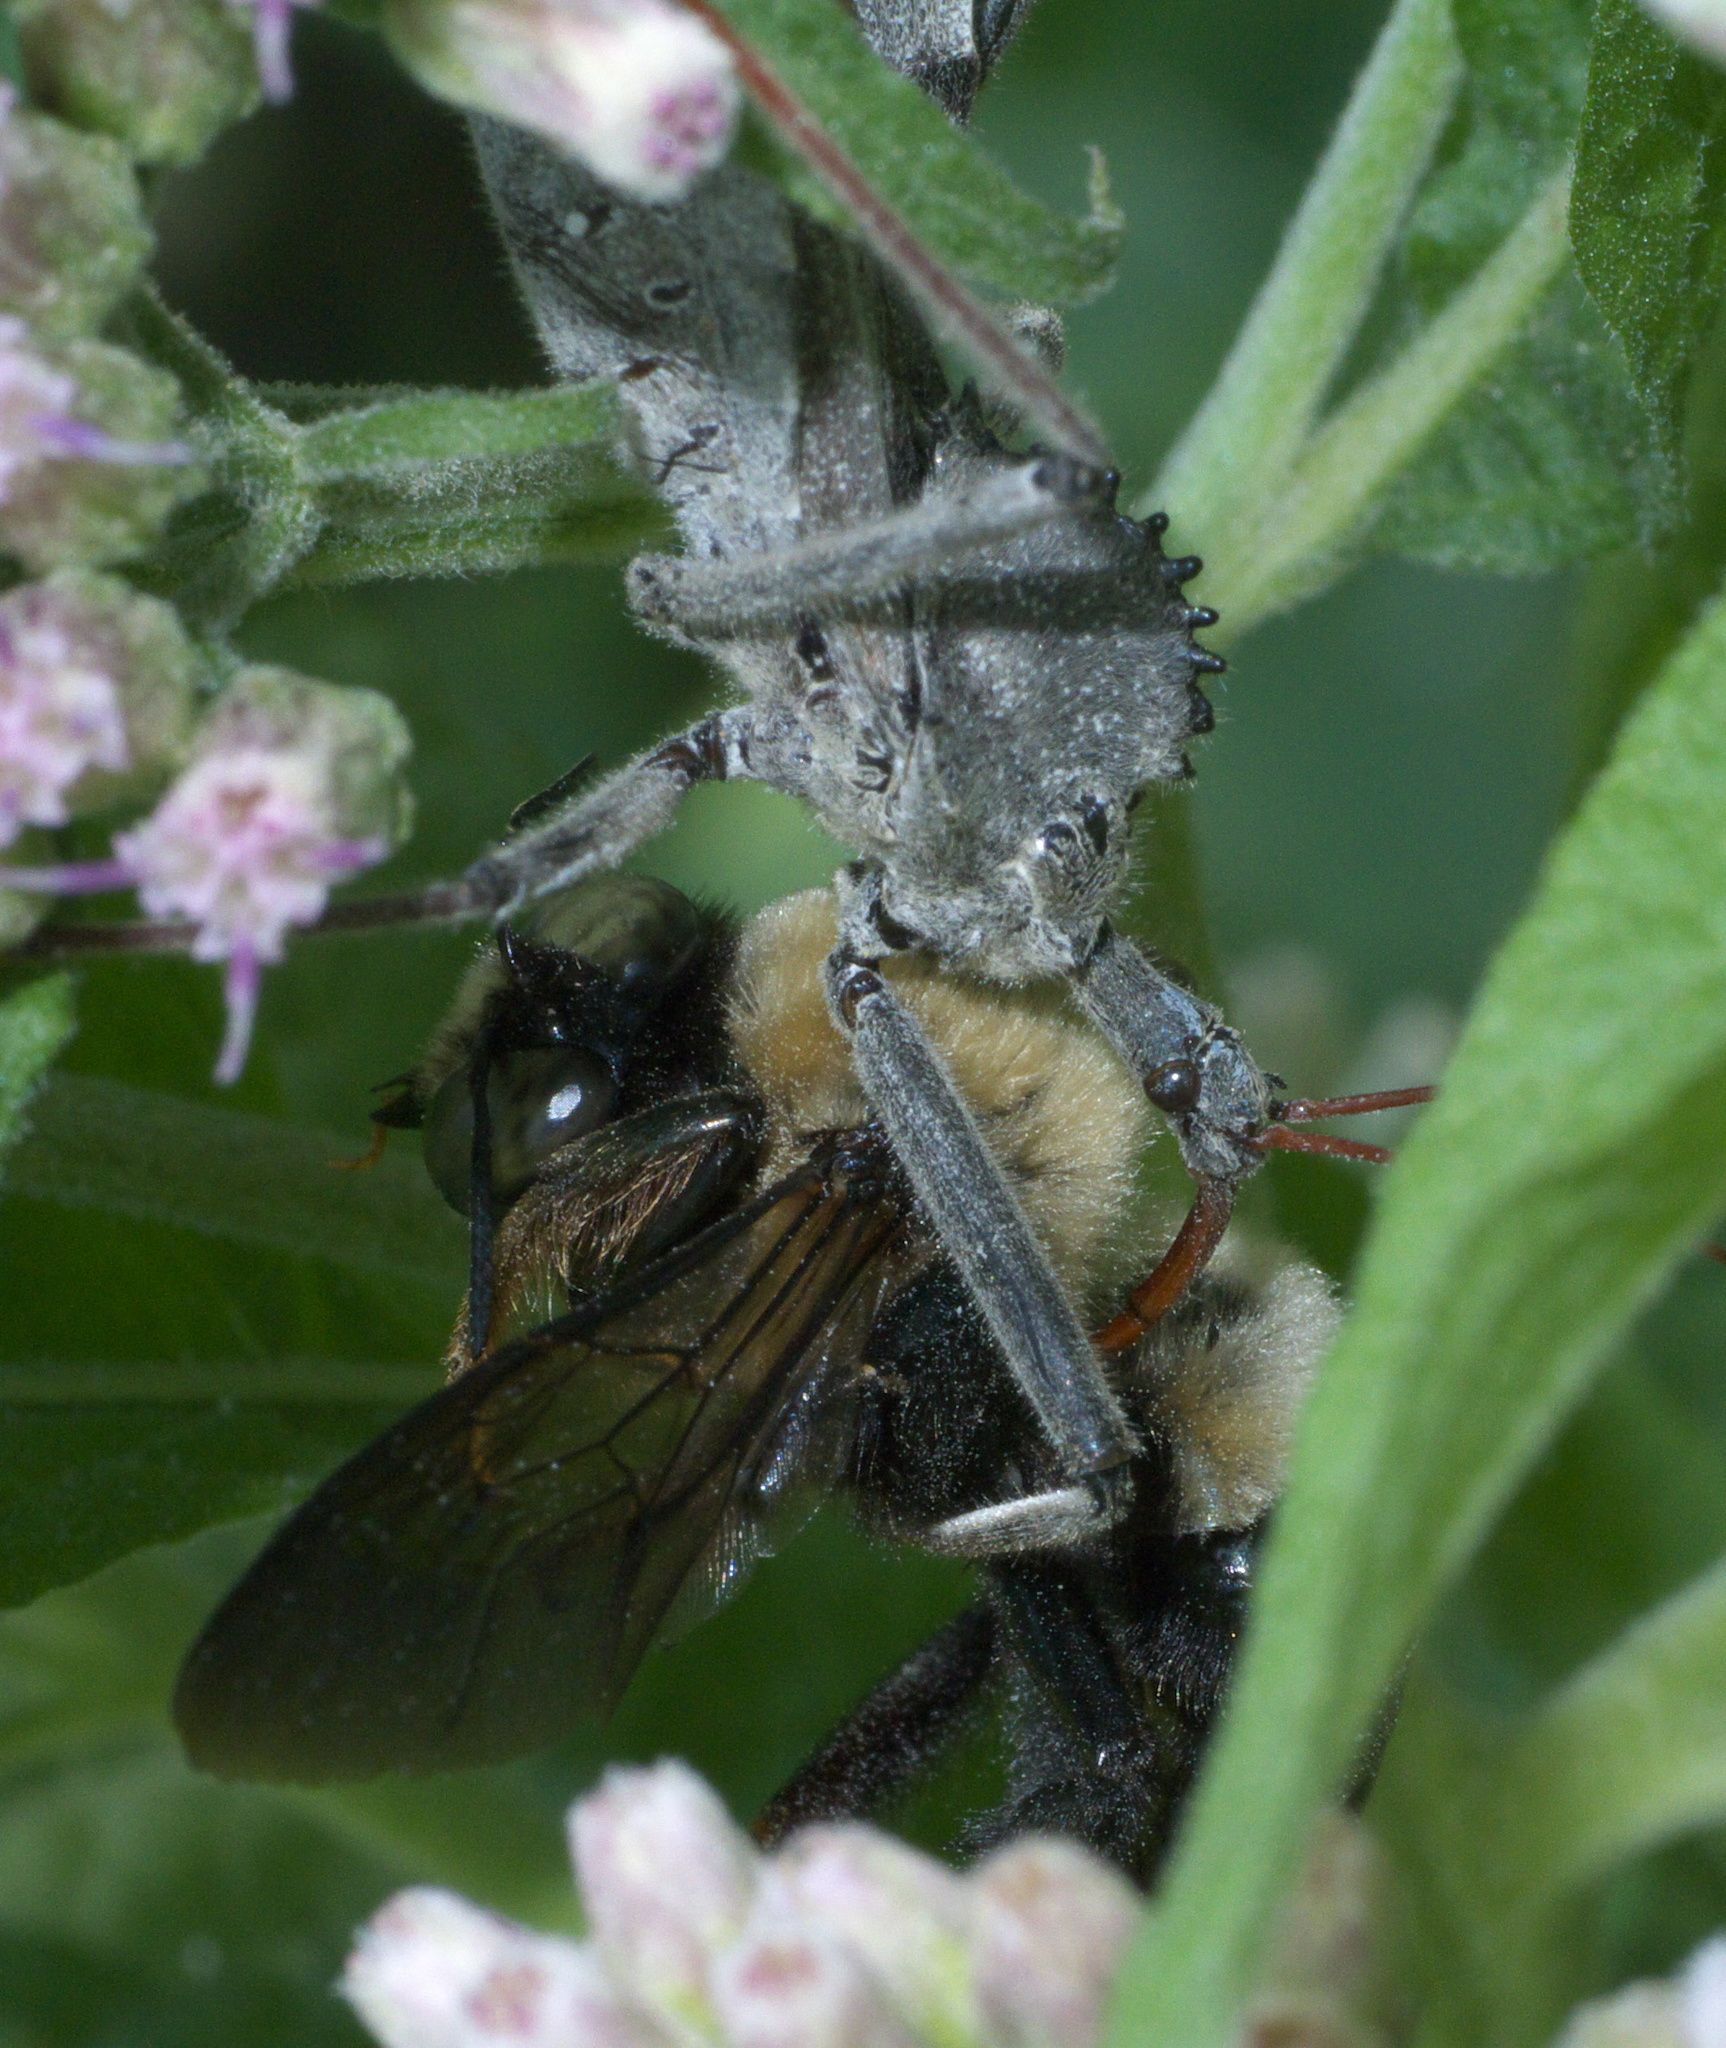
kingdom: Animalia
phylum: Arthropoda
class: Insecta
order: Hemiptera
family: Reduviidae
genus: Arilus
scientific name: Arilus cristatus
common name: North american wheel bug
